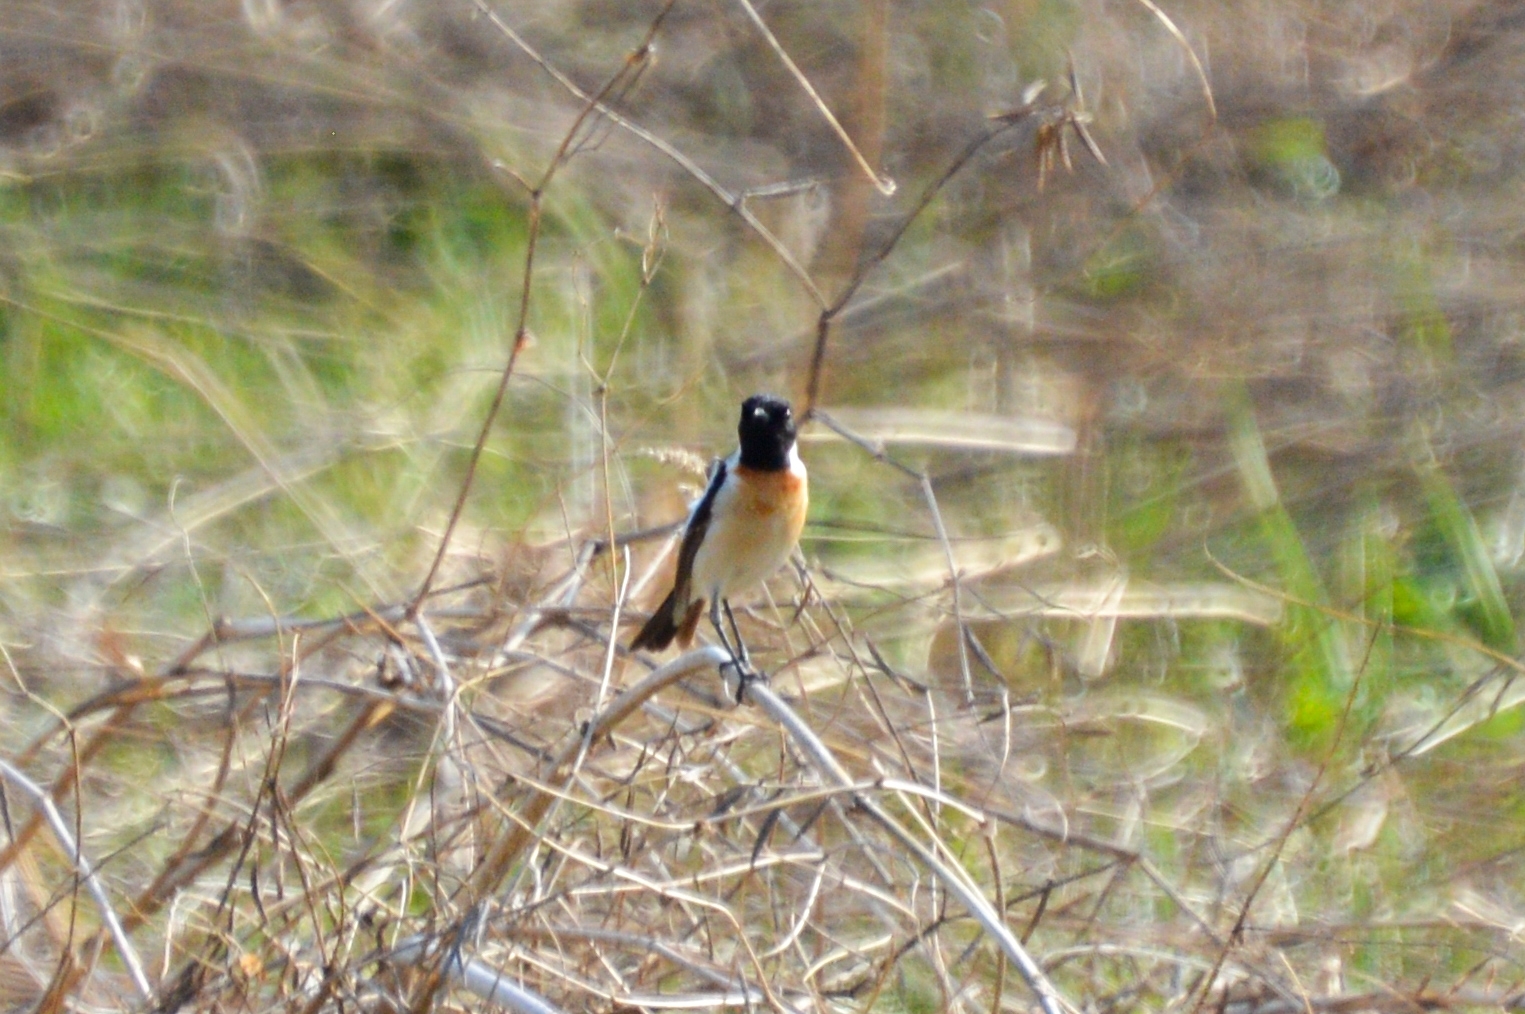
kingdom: Animalia
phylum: Chordata
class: Aves
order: Passeriformes
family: Muscicapidae
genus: Saxicola
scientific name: Saxicola maurus
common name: Siberian stonechat
